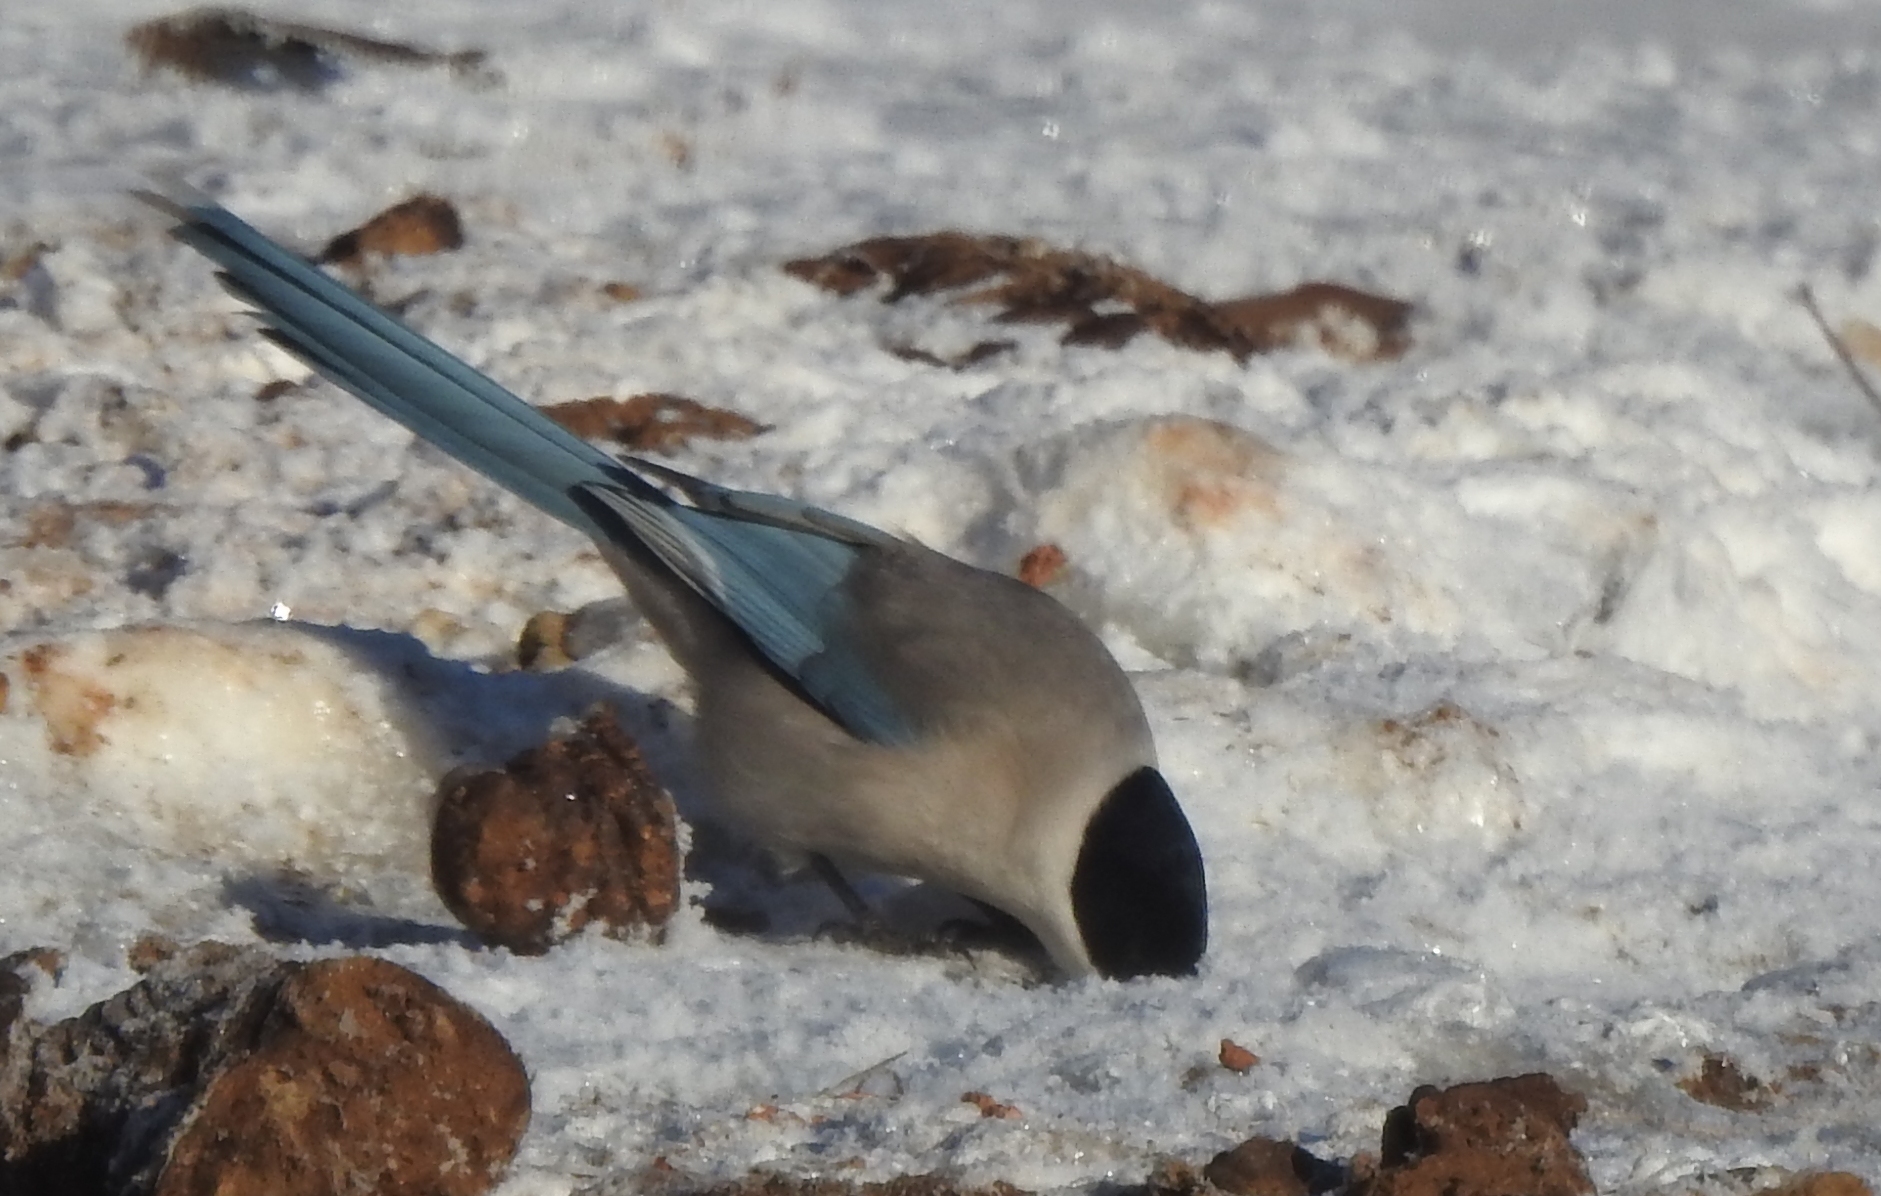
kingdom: Animalia
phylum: Chordata
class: Aves
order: Passeriformes
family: Corvidae
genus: Cyanopica
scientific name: Cyanopica cyanus
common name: Azure-winged magpie
